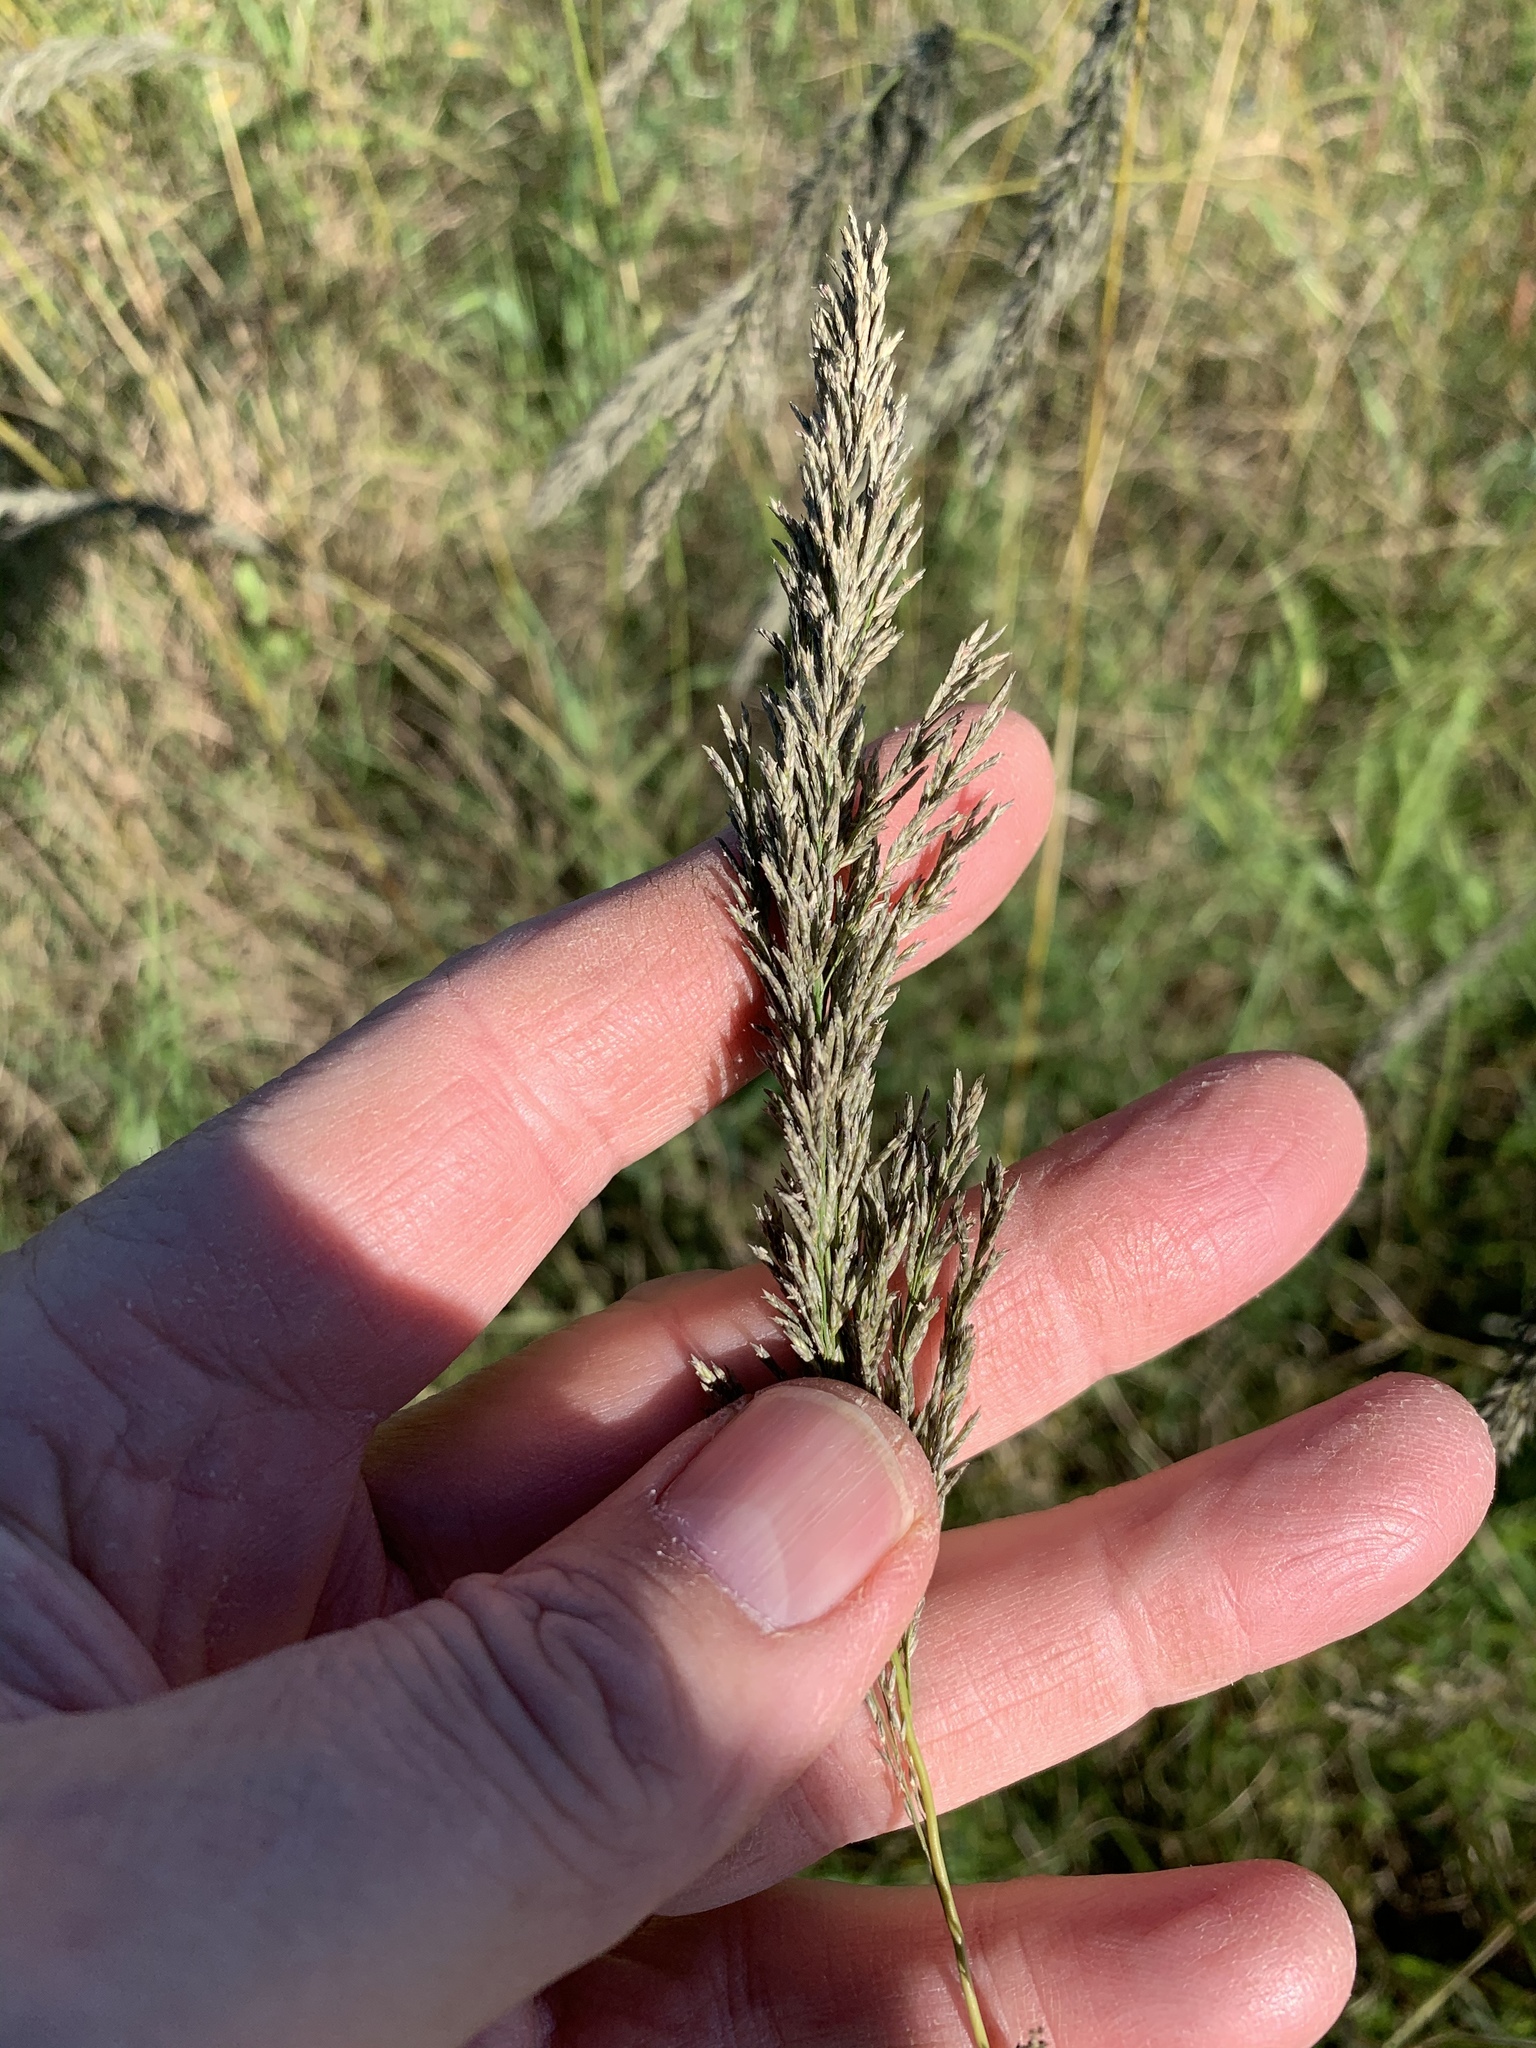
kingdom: Plantae
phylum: Tracheophyta
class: Liliopsida
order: Poales
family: Poaceae
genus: Eragrostis
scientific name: Eragrostis curvula
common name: African love-grass
